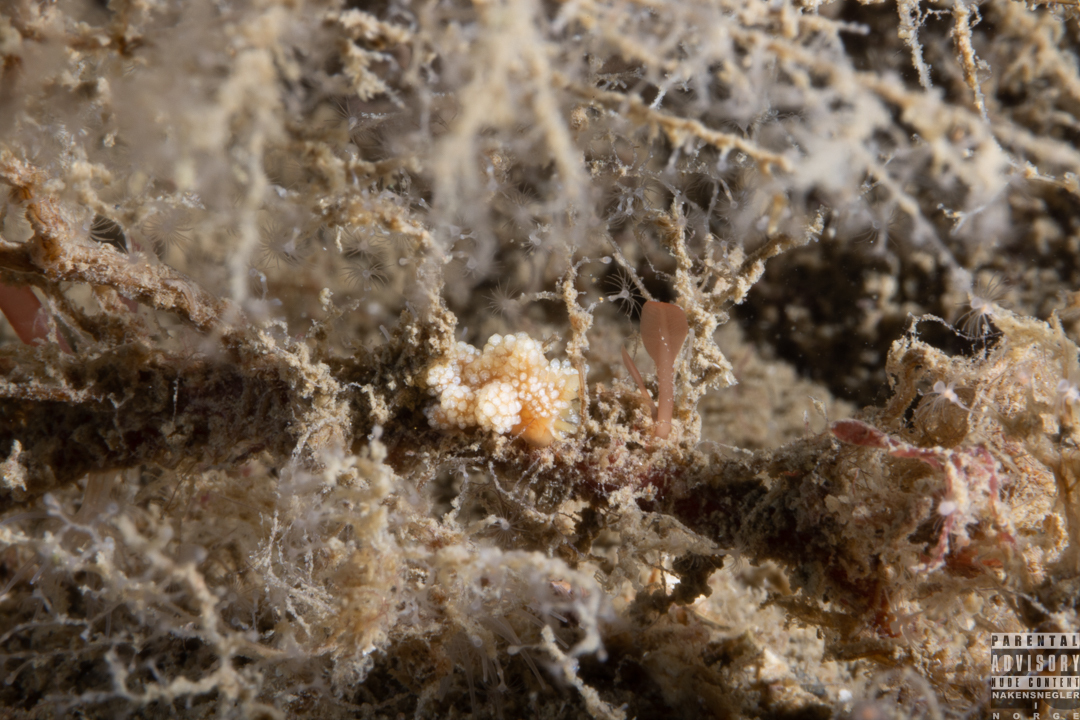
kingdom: Animalia
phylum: Mollusca
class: Gastropoda
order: Nudibranchia
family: Dotidae
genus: Doto
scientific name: Doto fragilis
